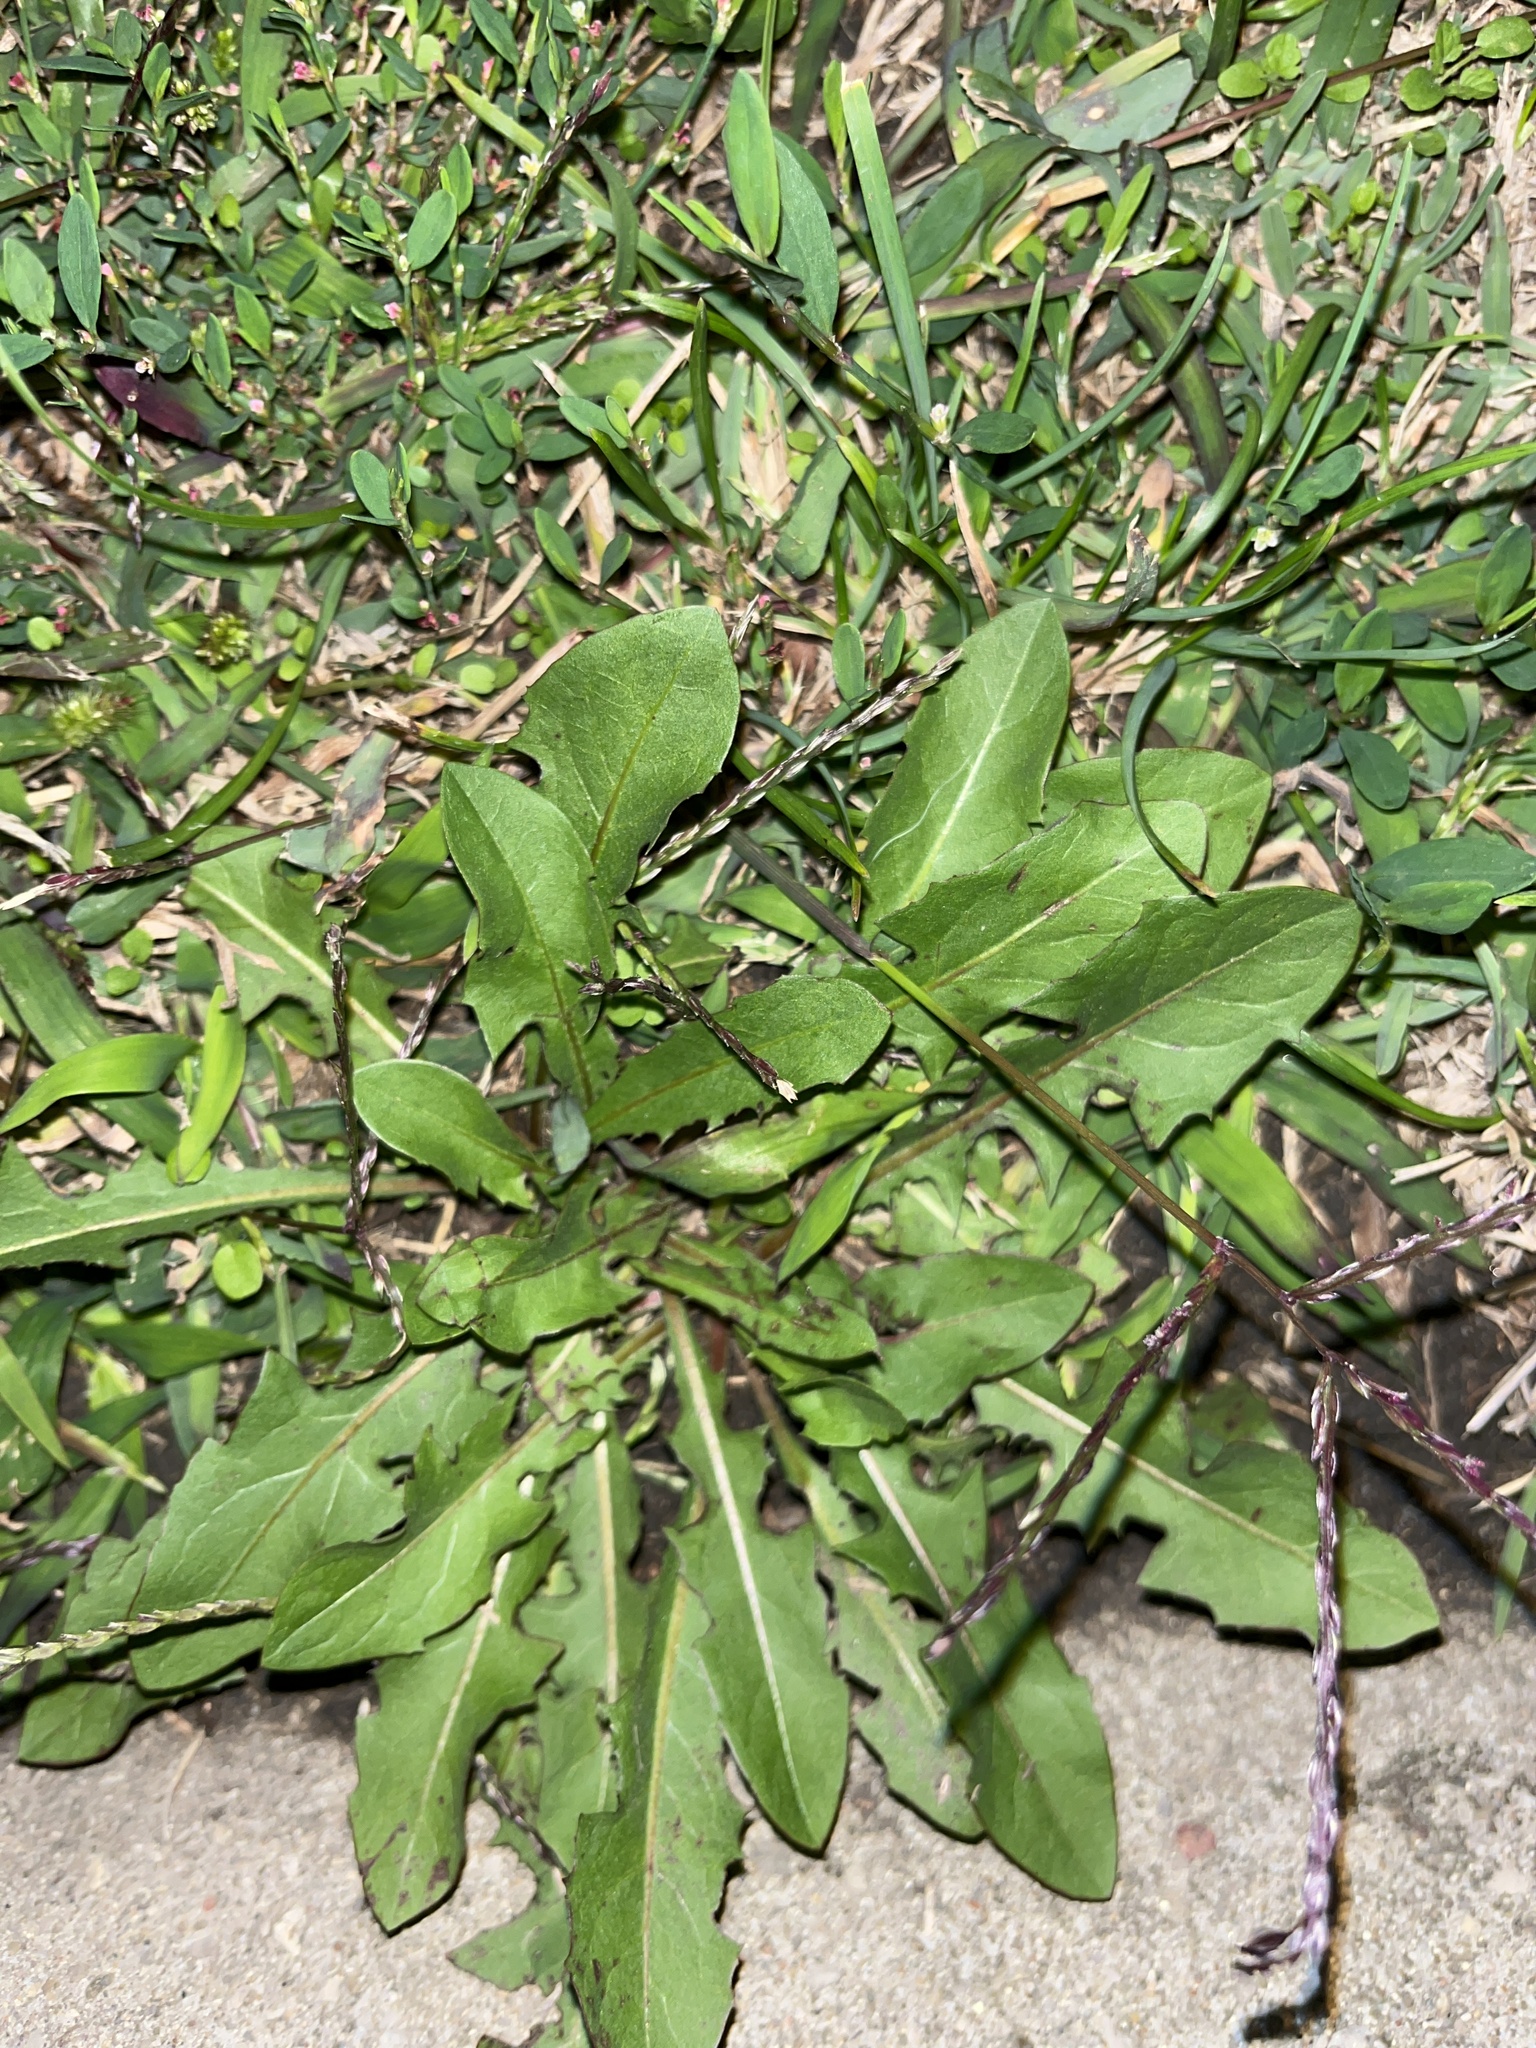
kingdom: Plantae
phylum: Tracheophyta
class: Magnoliopsida
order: Asterales
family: Asteraceae
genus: Taraxacum
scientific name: Taraxacum officinale
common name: Common dandelion
